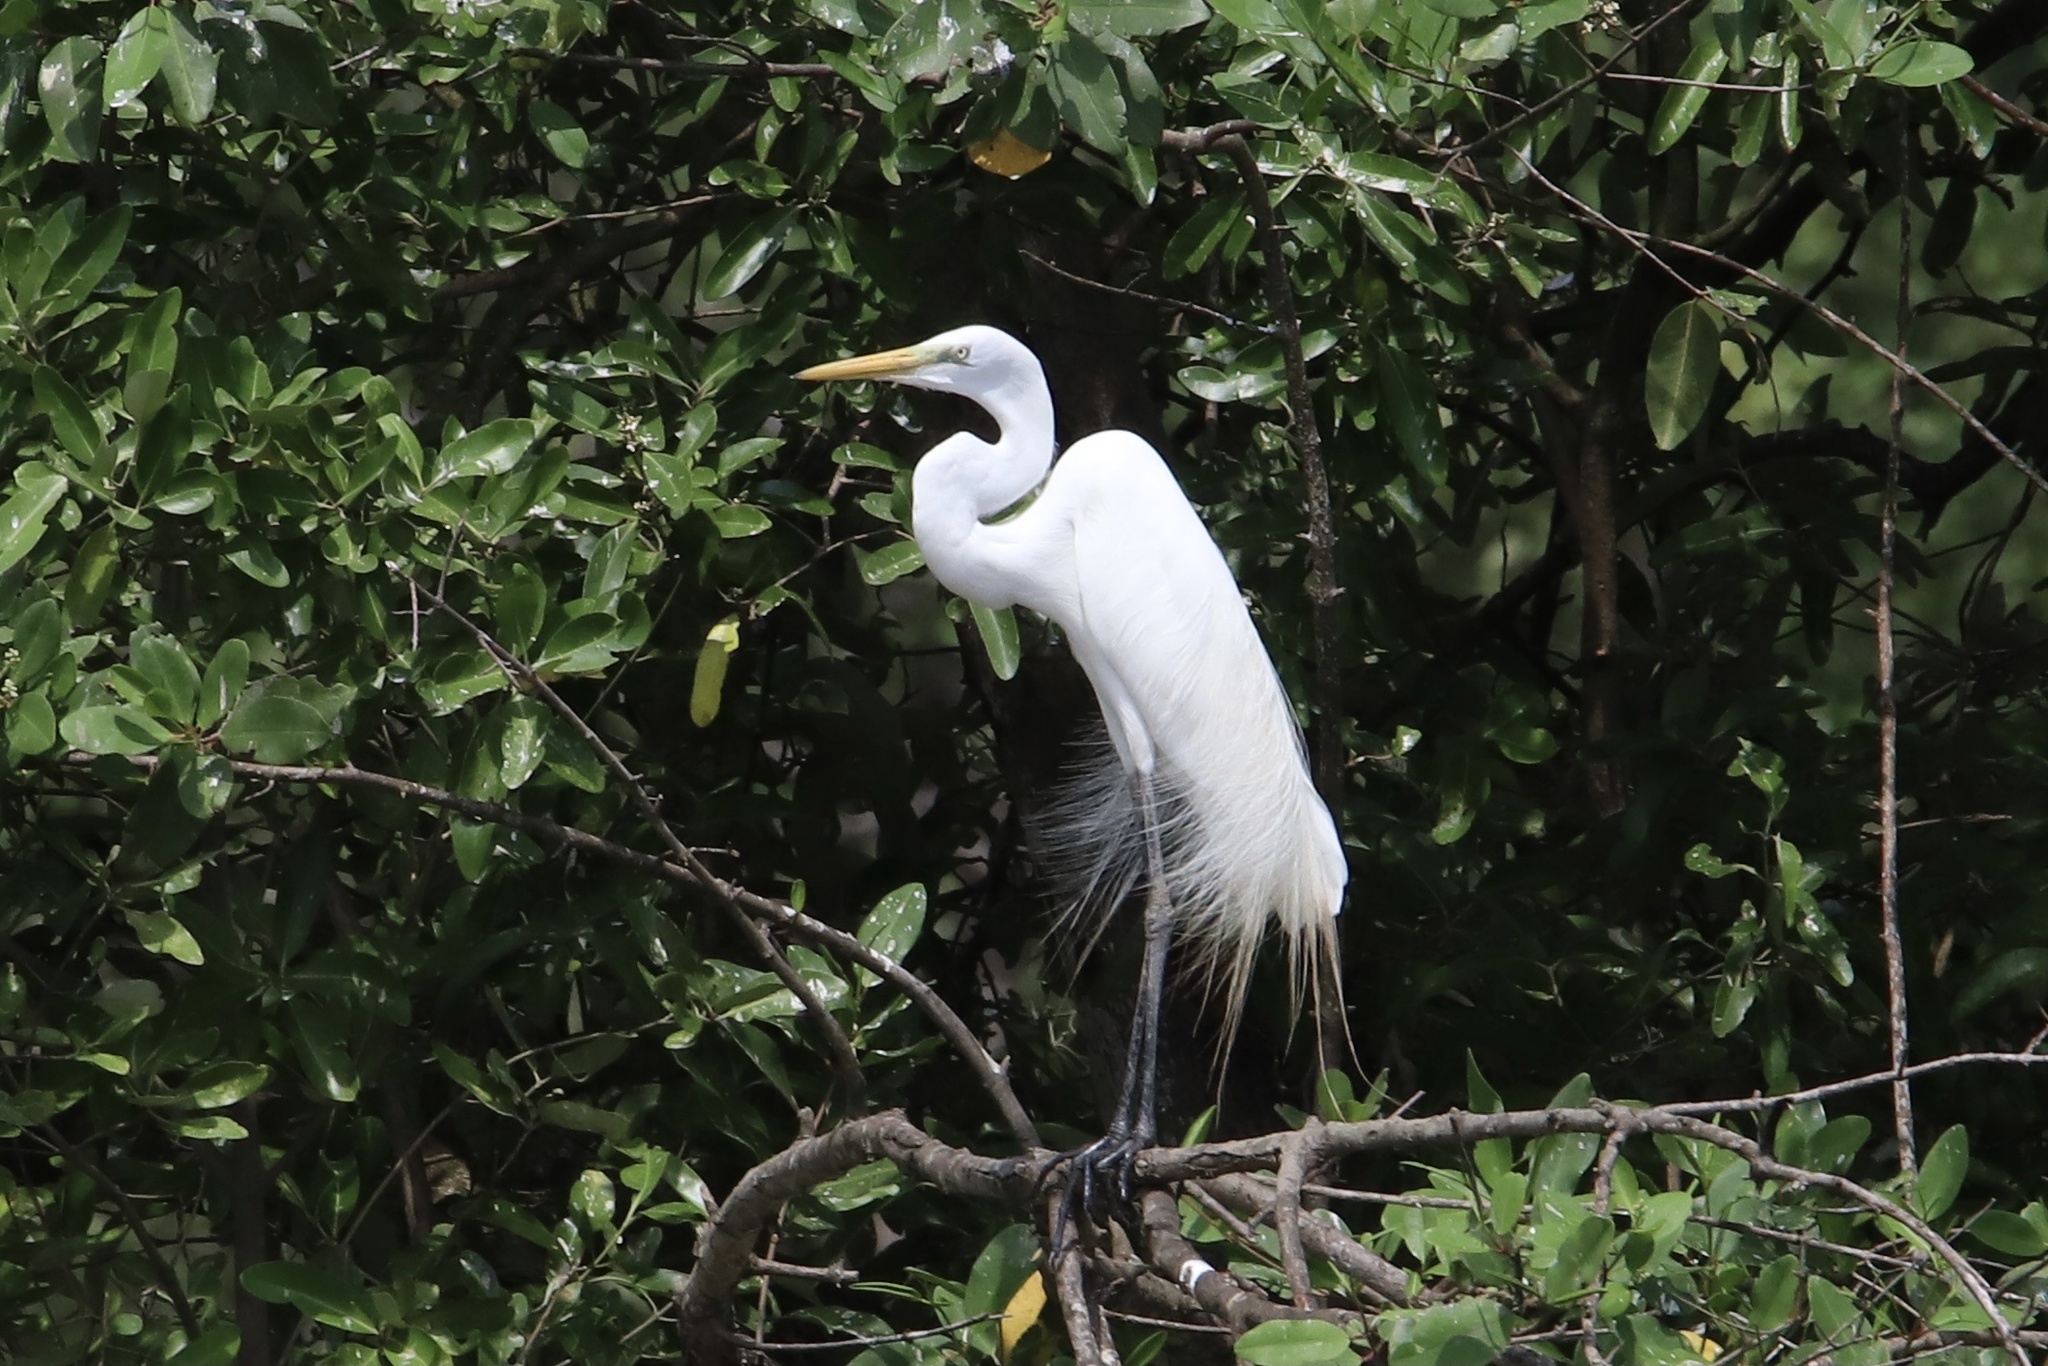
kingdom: Animalia
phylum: Chordata
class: Aves
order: Pelecaniformes
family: Ardeidae
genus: Ardea
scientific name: Ardea alba
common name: Great egret
